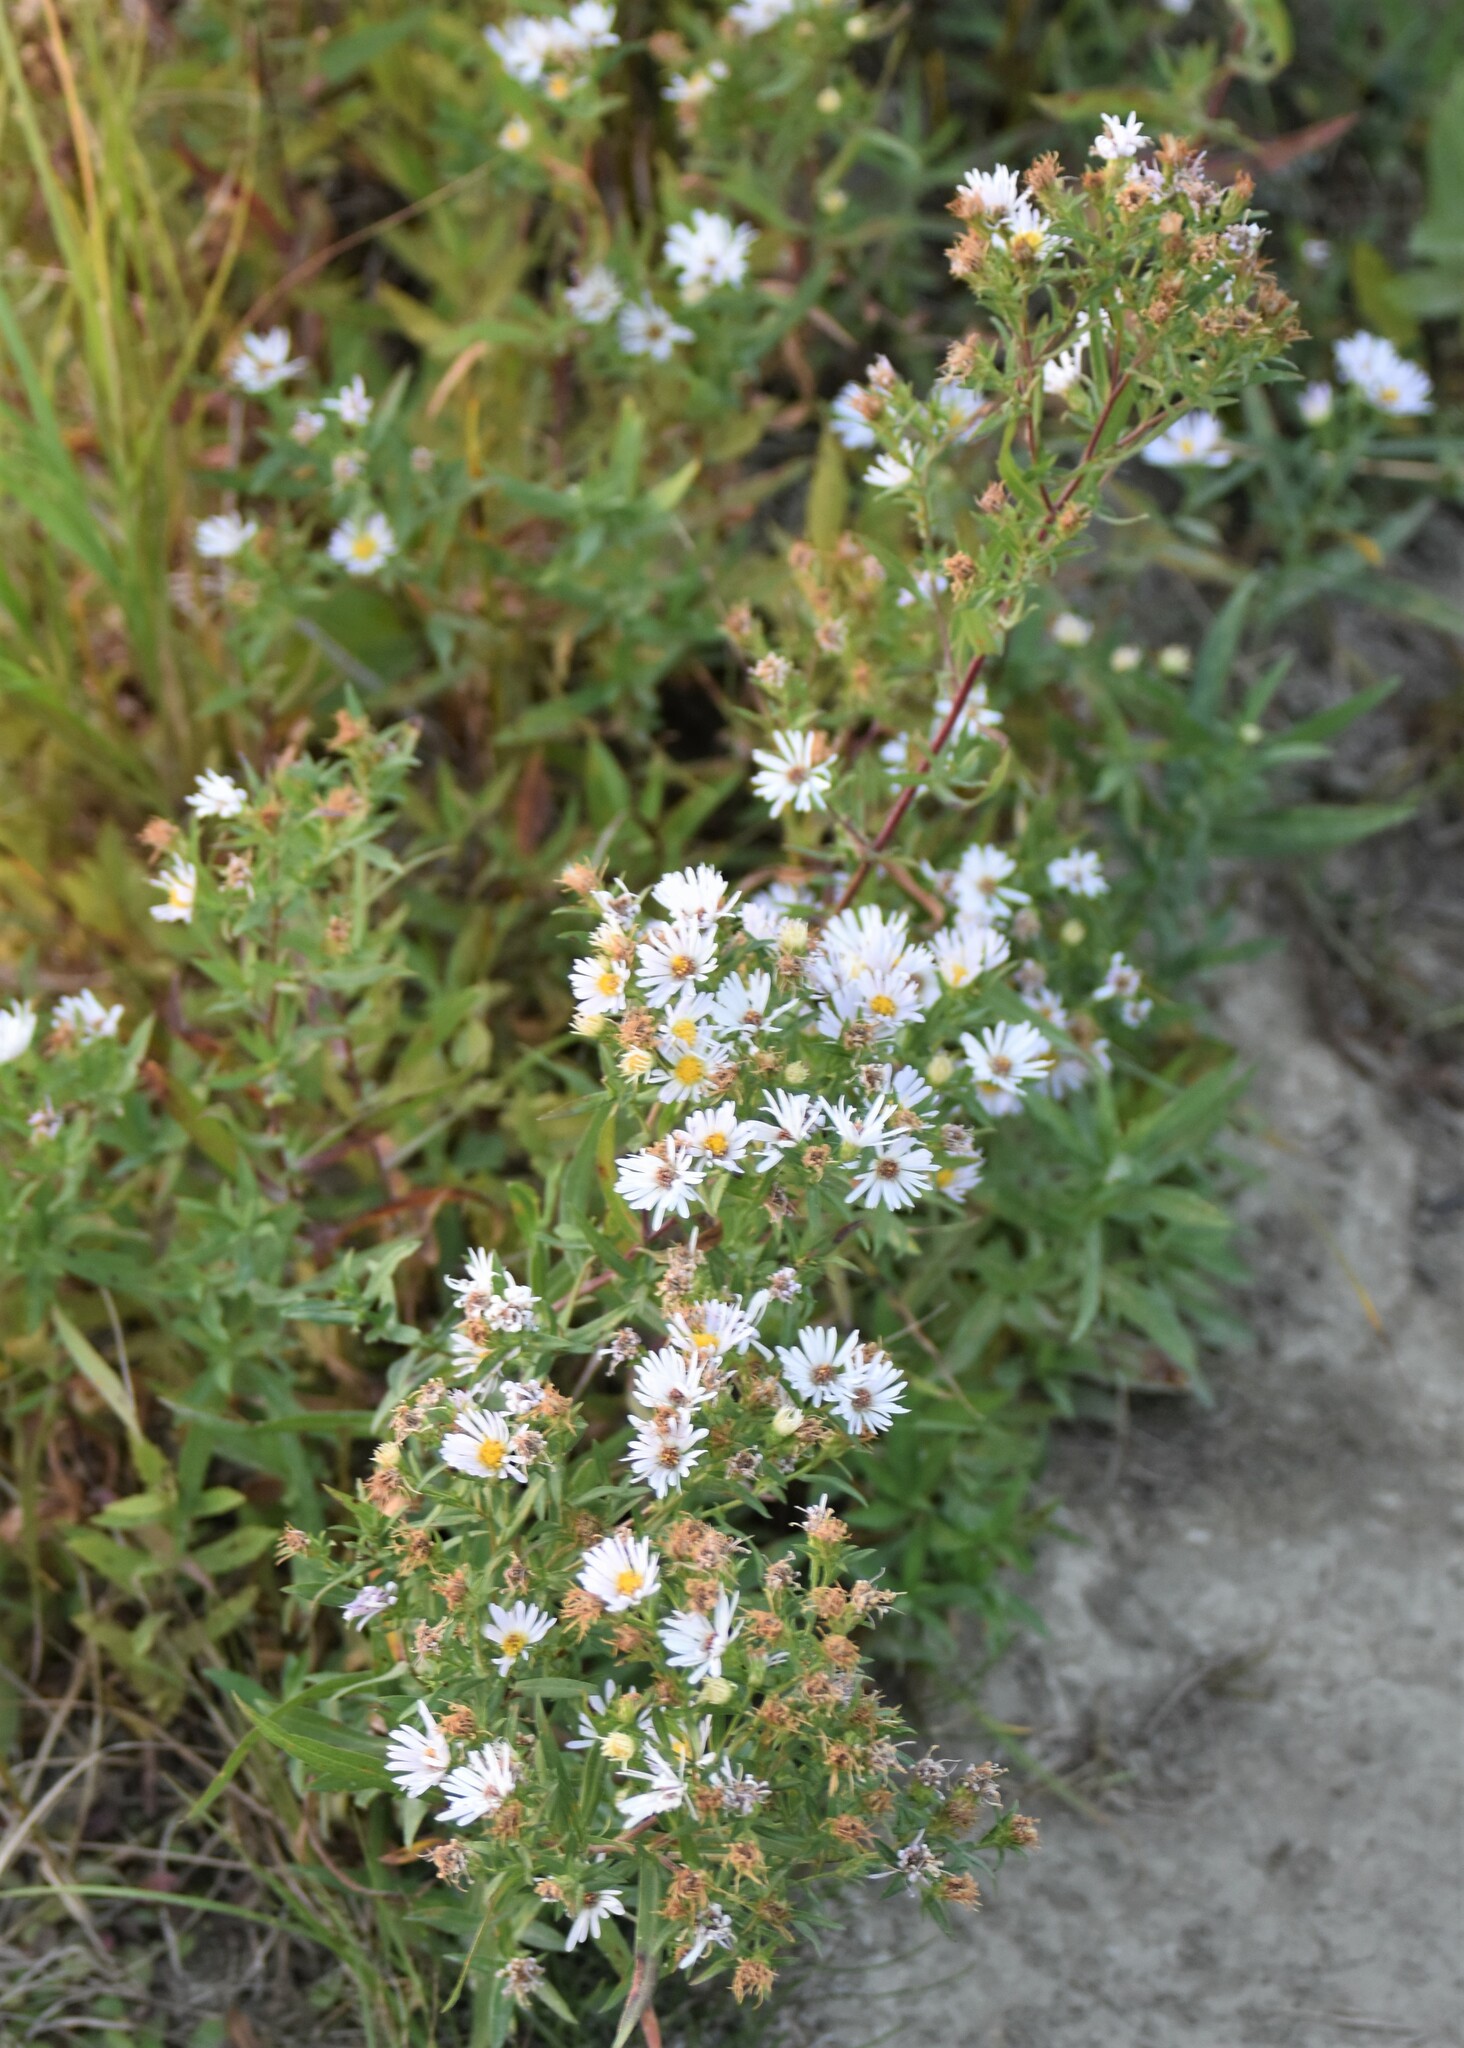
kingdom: Plantae
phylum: Tracheophyta
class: Magnoliopsida
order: Asterales
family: Asteraceae
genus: Symphyotrichum
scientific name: Symphyotrichum lanceolatum
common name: Panicled aster
